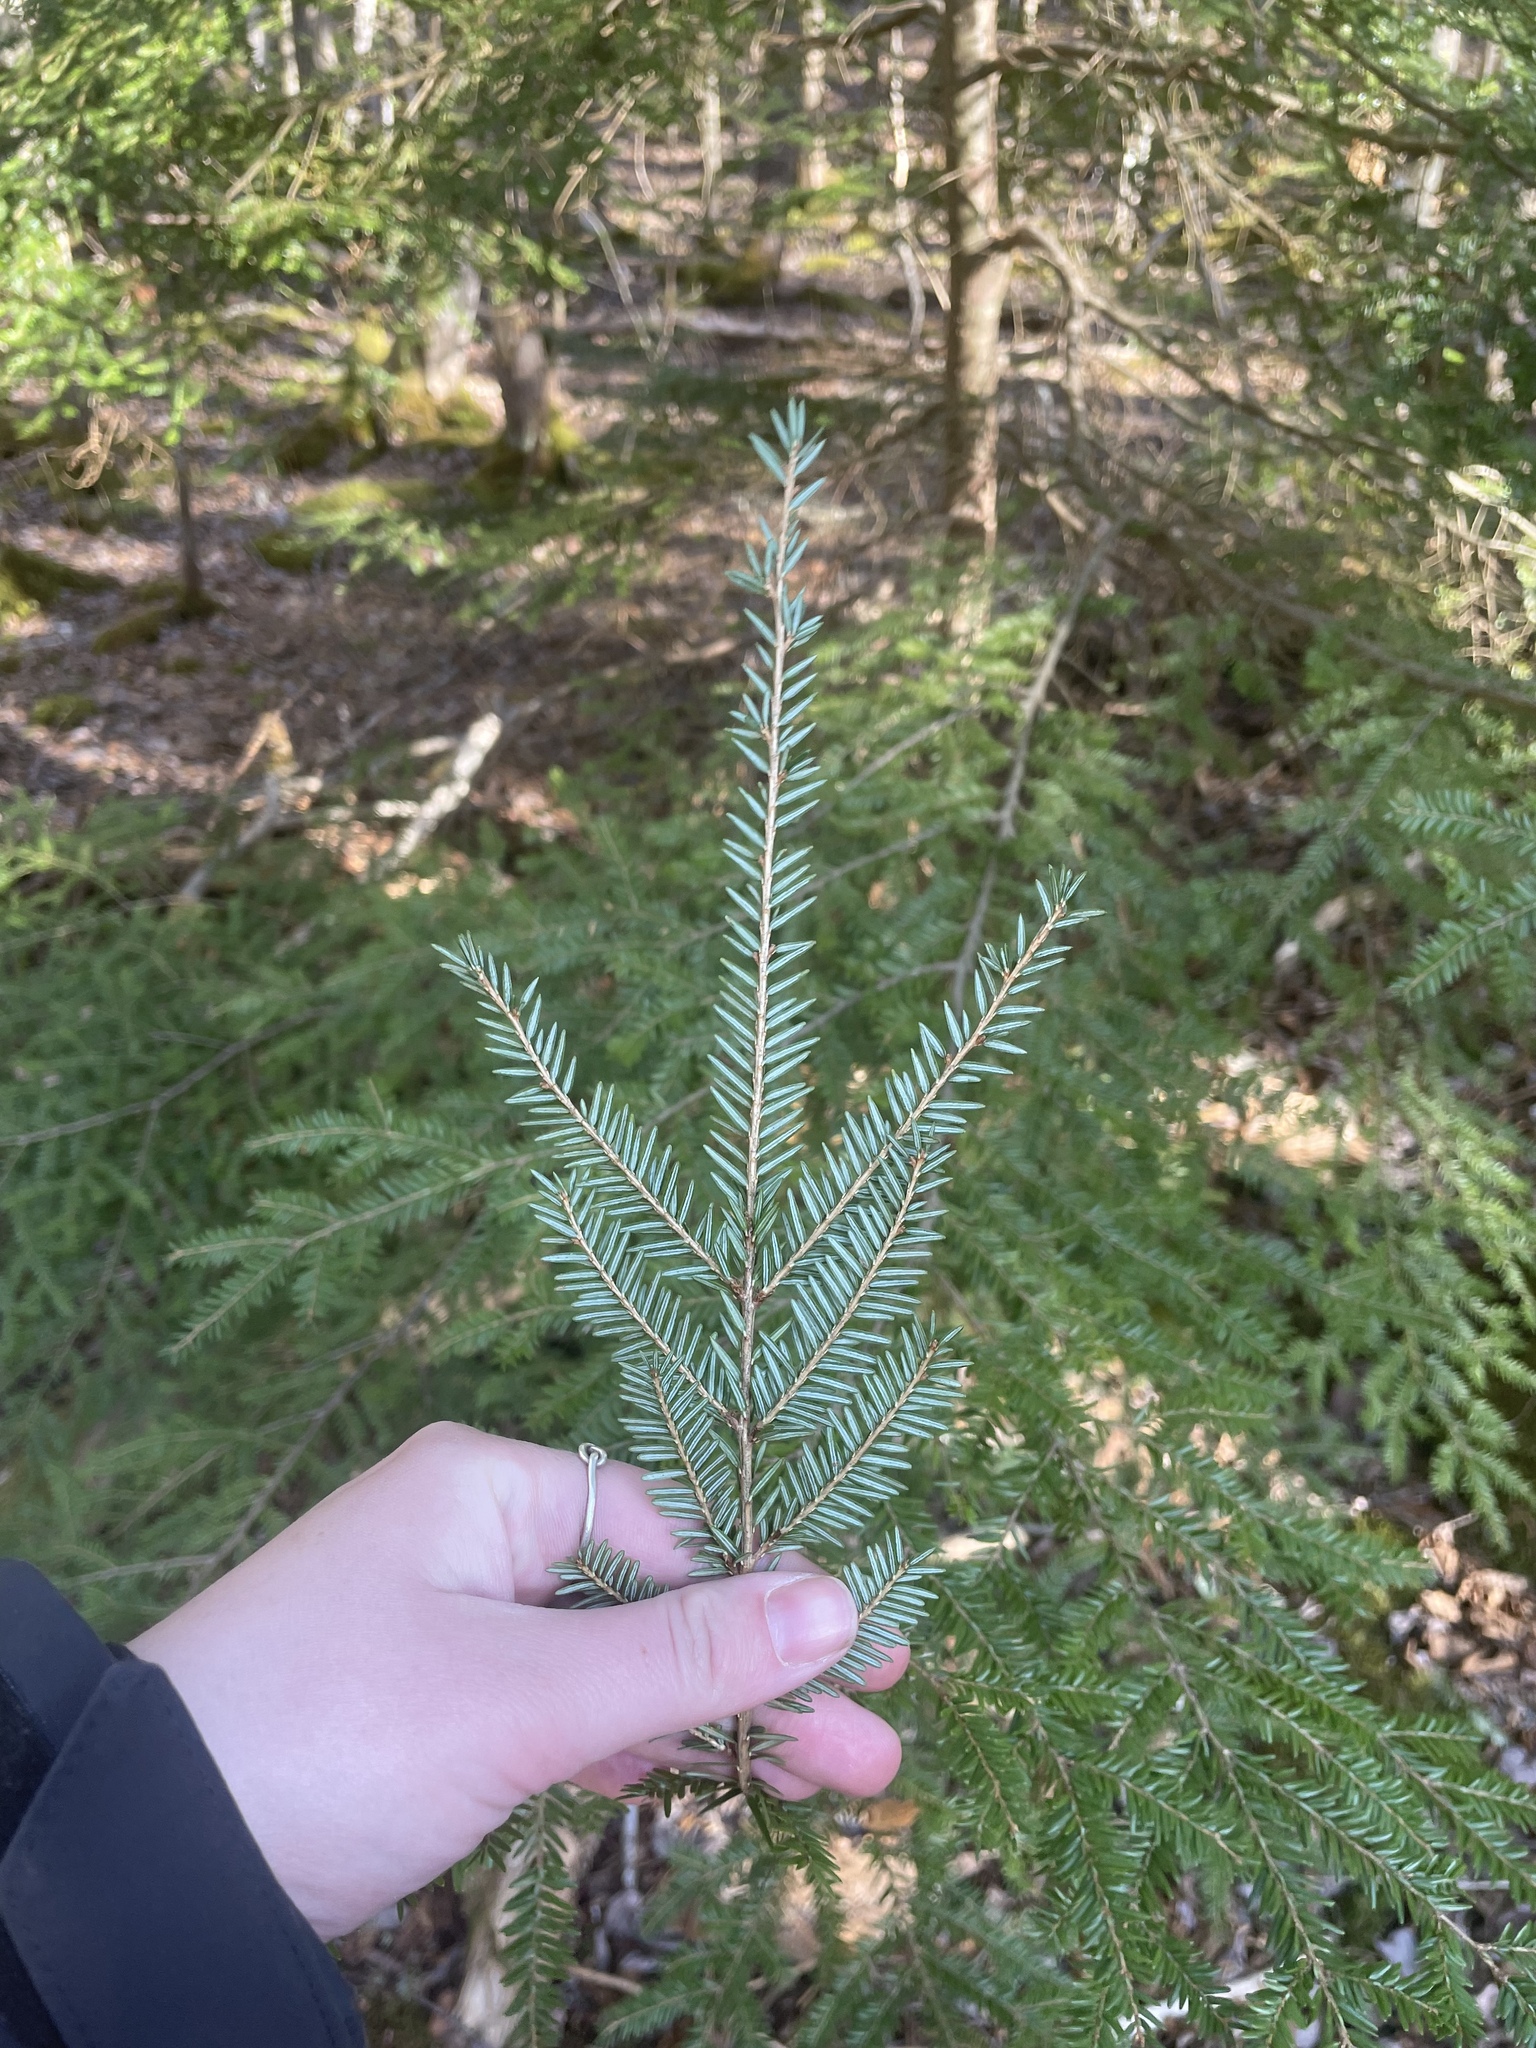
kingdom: Plantae
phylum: Tracheophyta
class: Pinopsida
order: Pinales
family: Pinaceae
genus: Tsuga
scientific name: Tsuga canadensis
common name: Eastern hemlock
